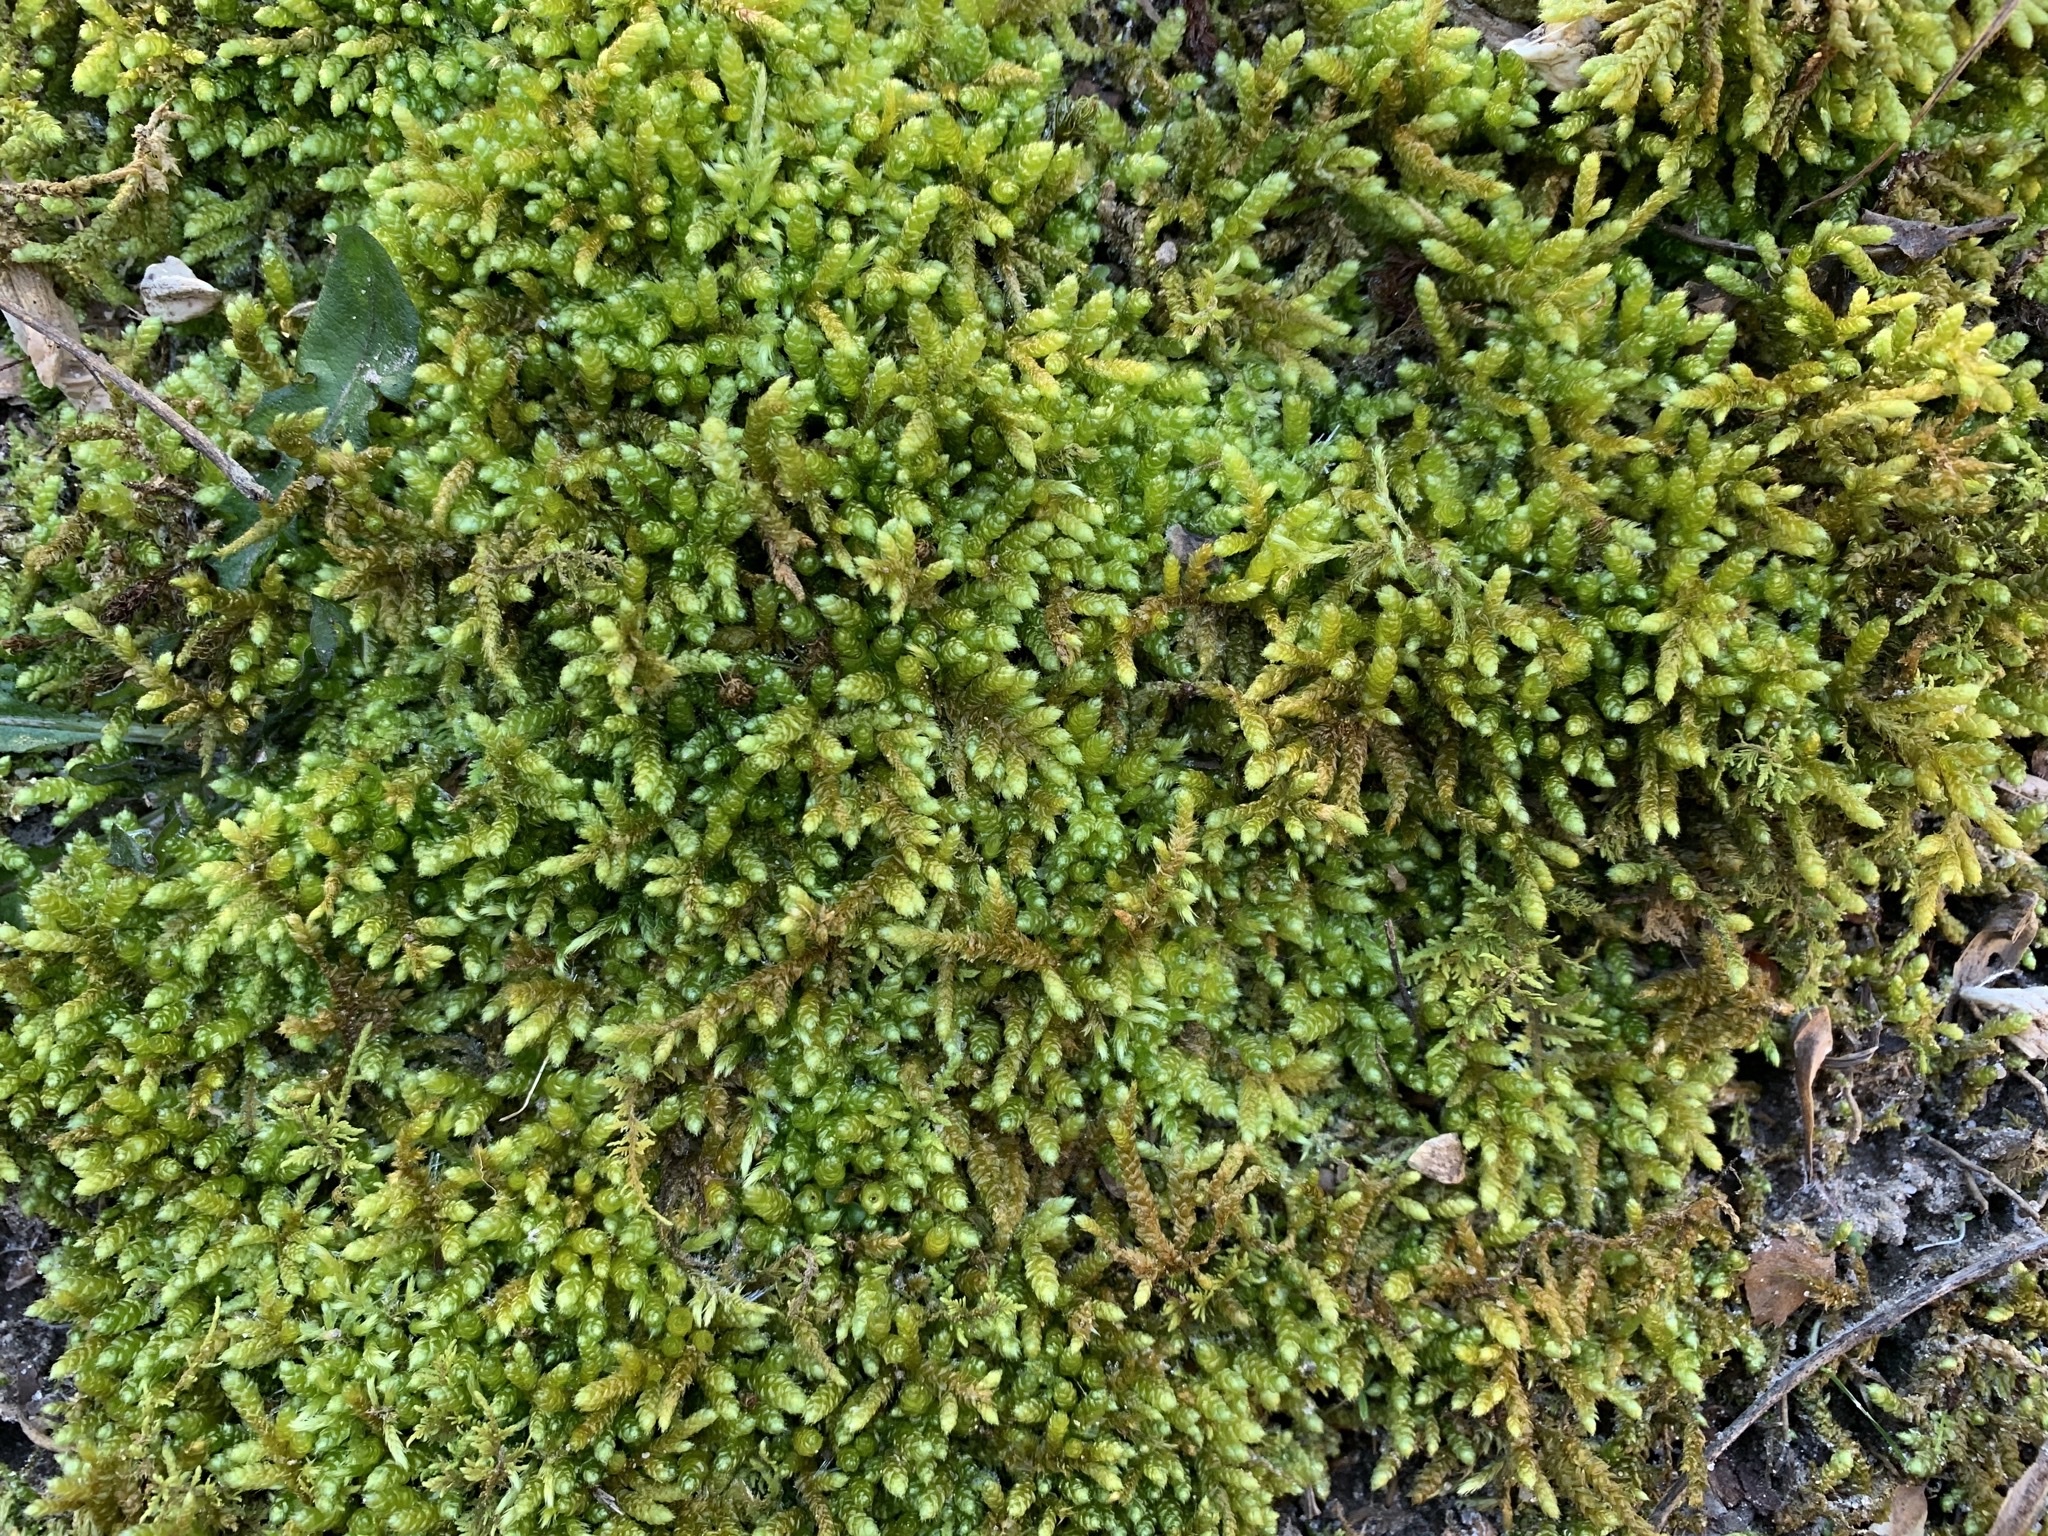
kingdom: Plantae
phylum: Bryophyta
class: Bryopsida
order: Hypnales
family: Brachytheciaceae
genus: Bryoandersonia
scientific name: Bryoandersonia illecebra
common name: Spoon-leaved moss
